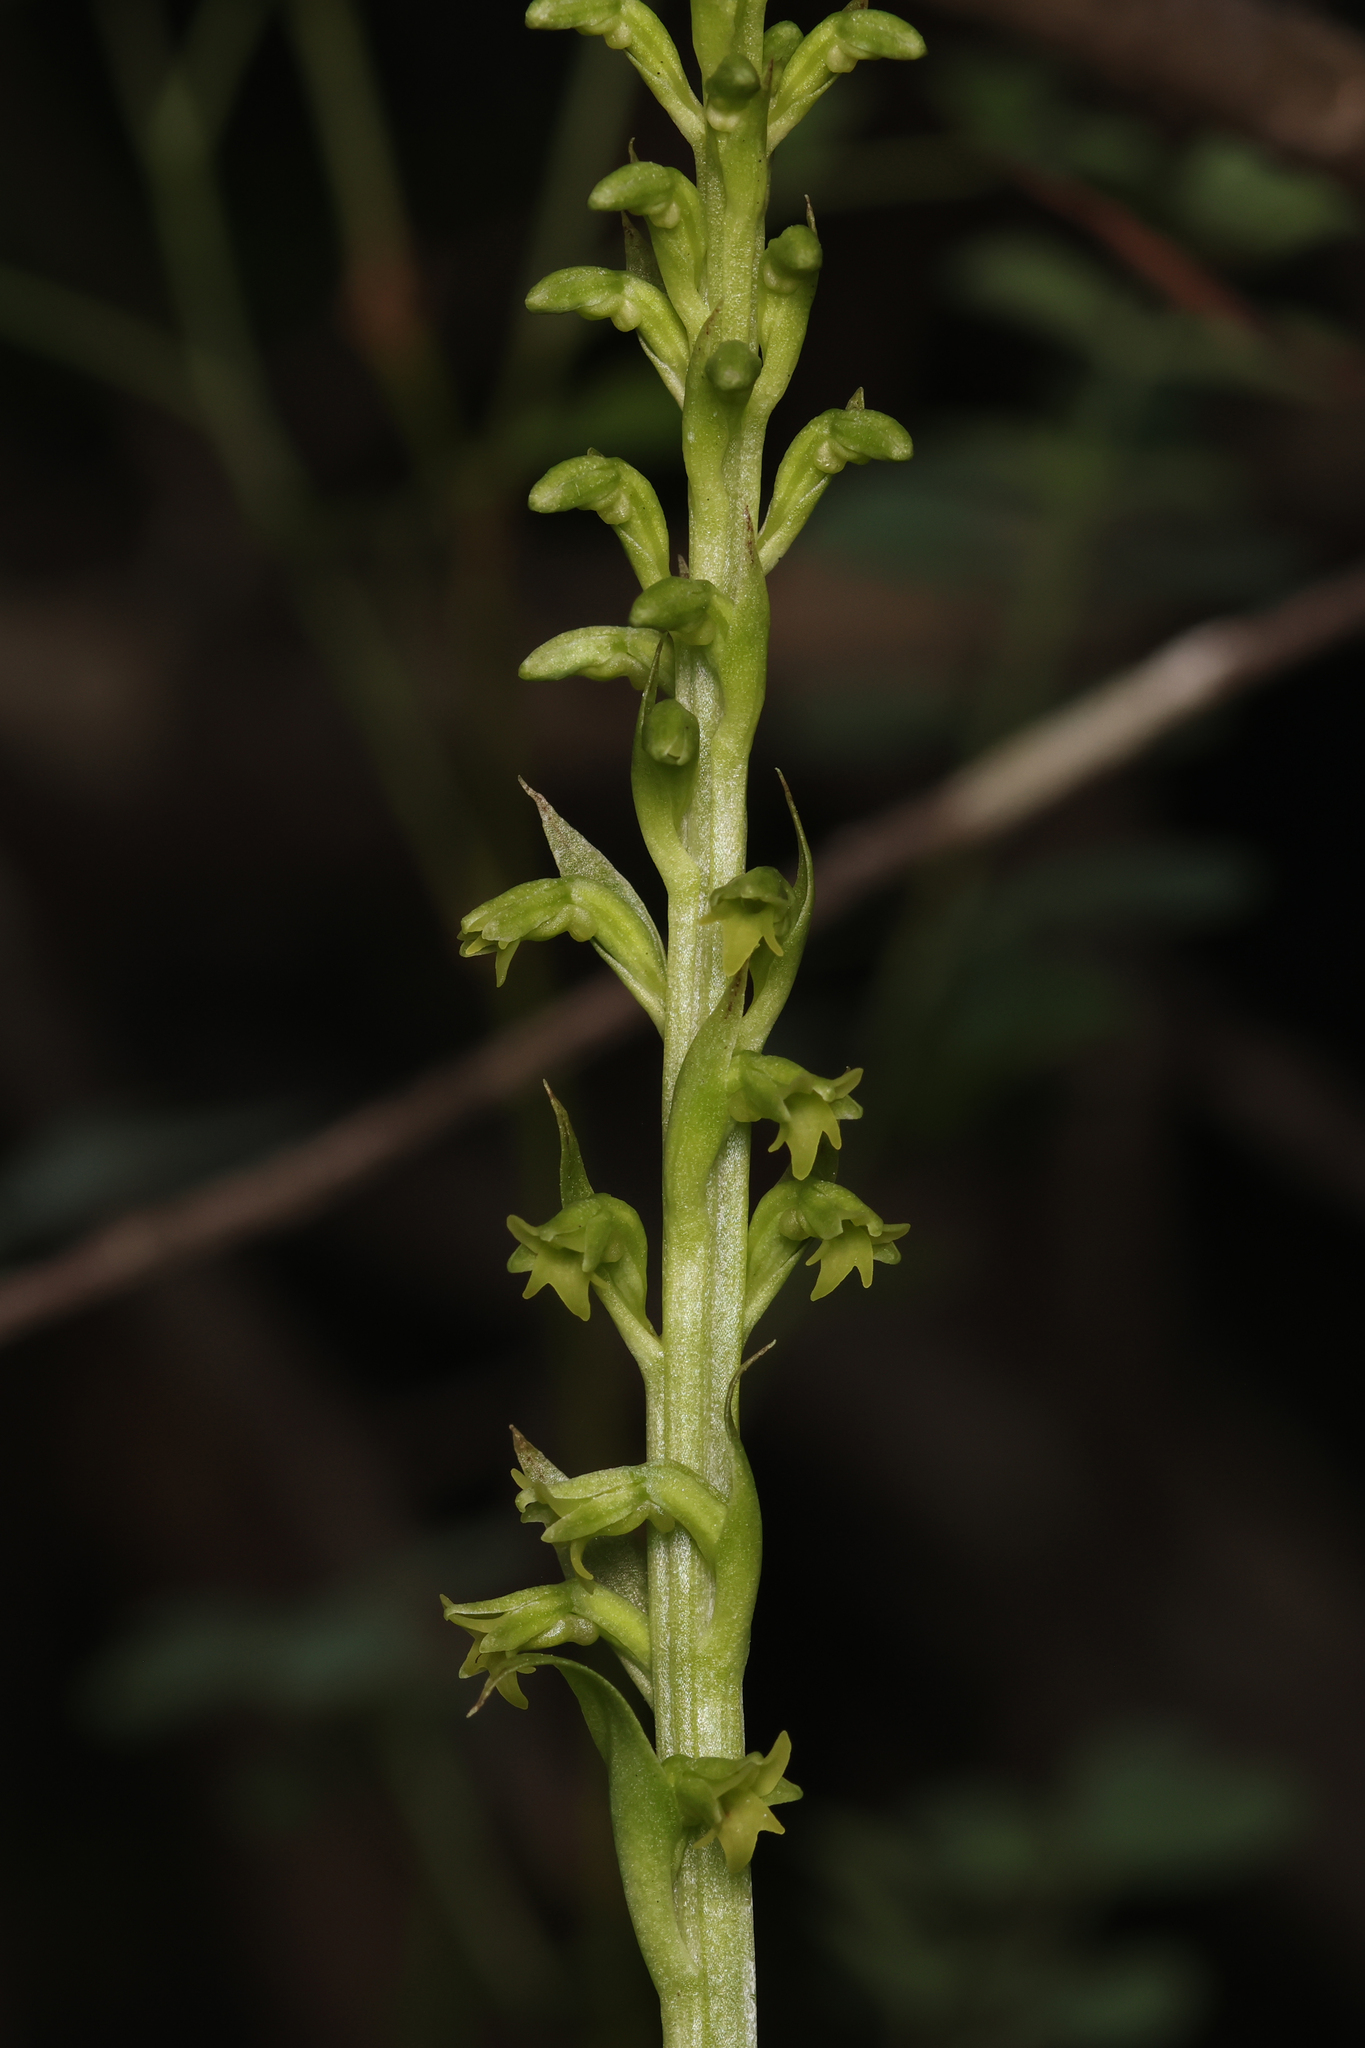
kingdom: Plantae
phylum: Tracheophyta
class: Liliopsida
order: Asparagales
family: Orchidaceae
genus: Gennaria
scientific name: Gennaria diphylla
